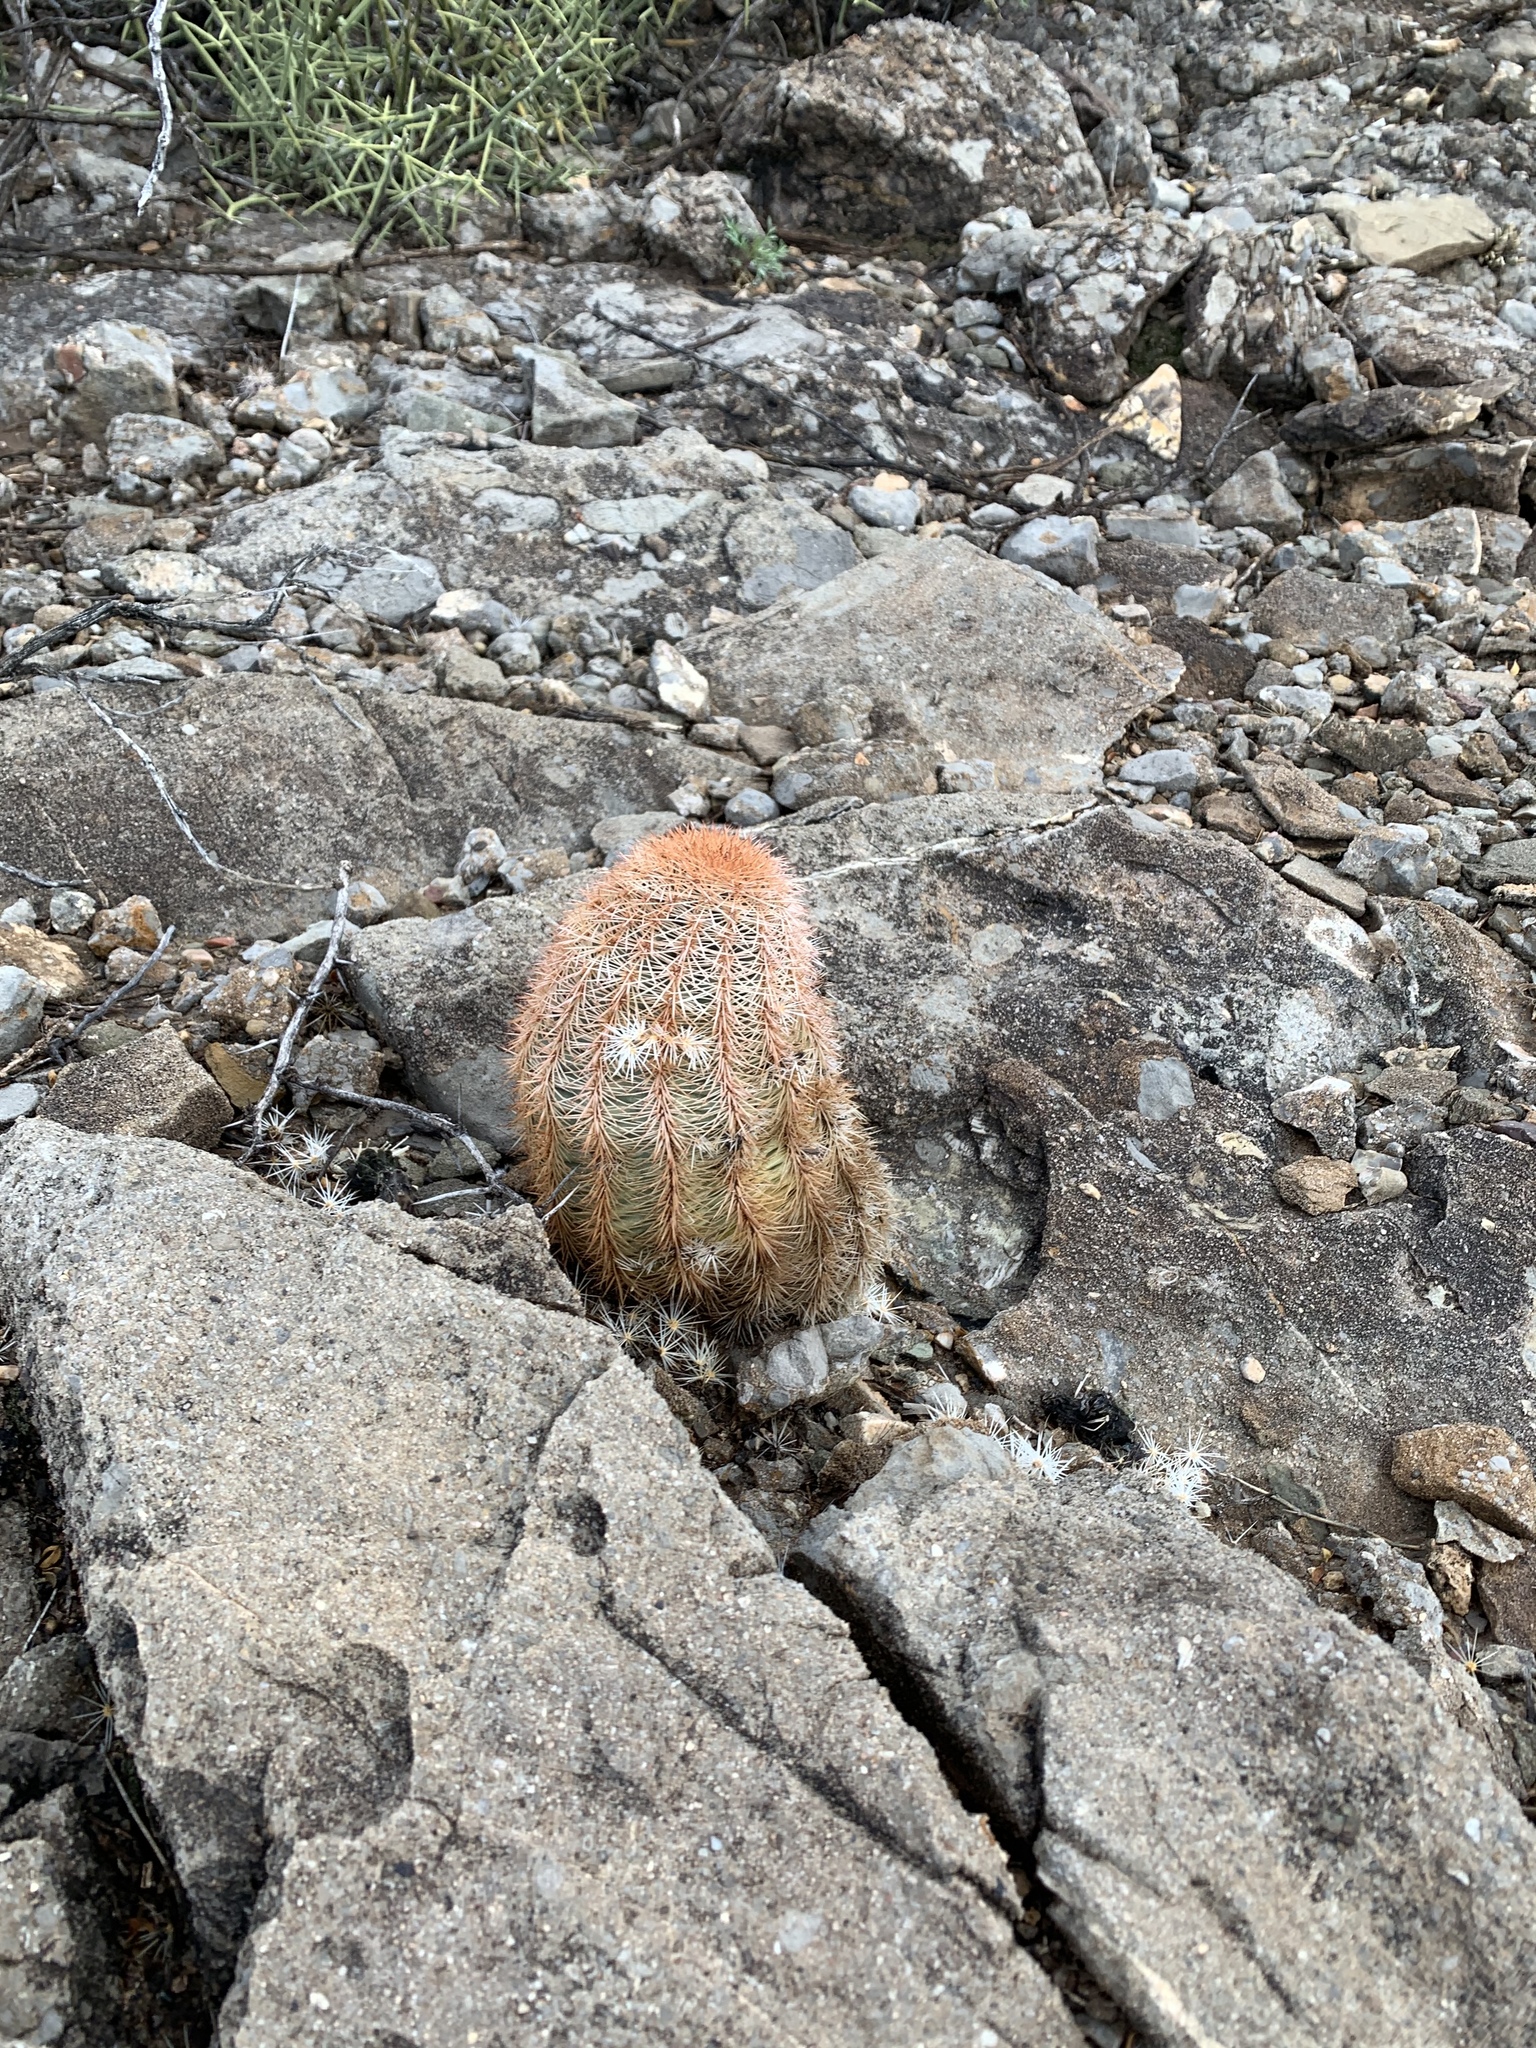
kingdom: Plantae
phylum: Tracheophyta
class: Magnoliopsida
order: Caryophyllales
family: Cactaceae
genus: Echinocereus
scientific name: Echinocereus dasyacanthus
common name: Spiny hedgehog cactus
